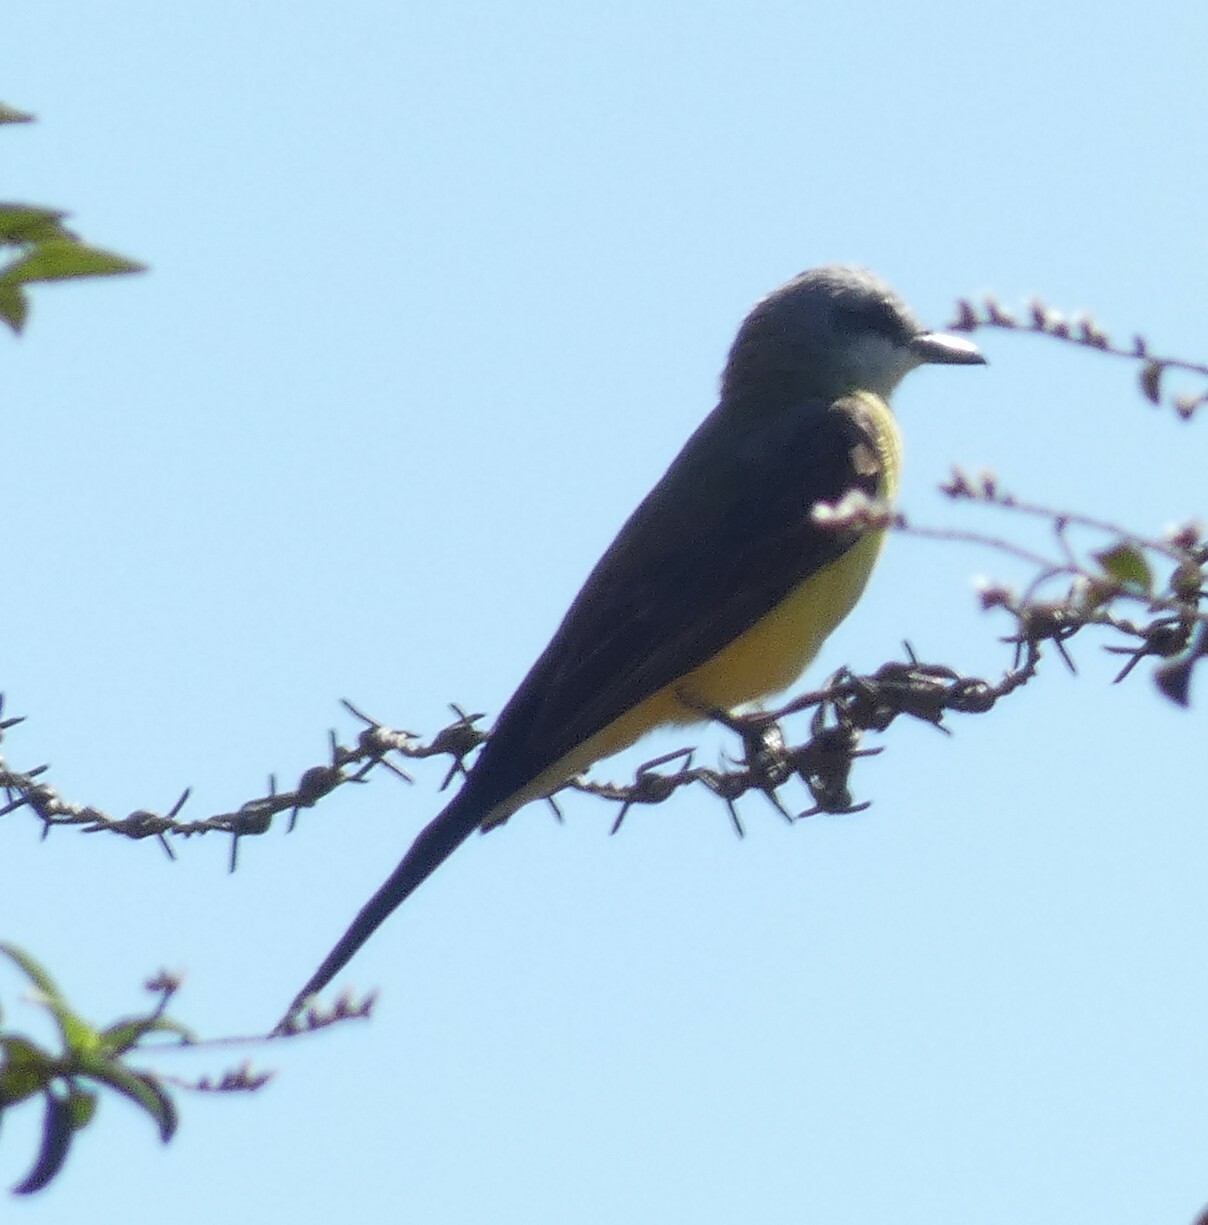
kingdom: Animalia
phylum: Chordata
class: Aves
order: Passeriformes
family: Tyrannidae
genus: Tyrannus
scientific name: Tyrannus melancholicus
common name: Tropical kingbird
